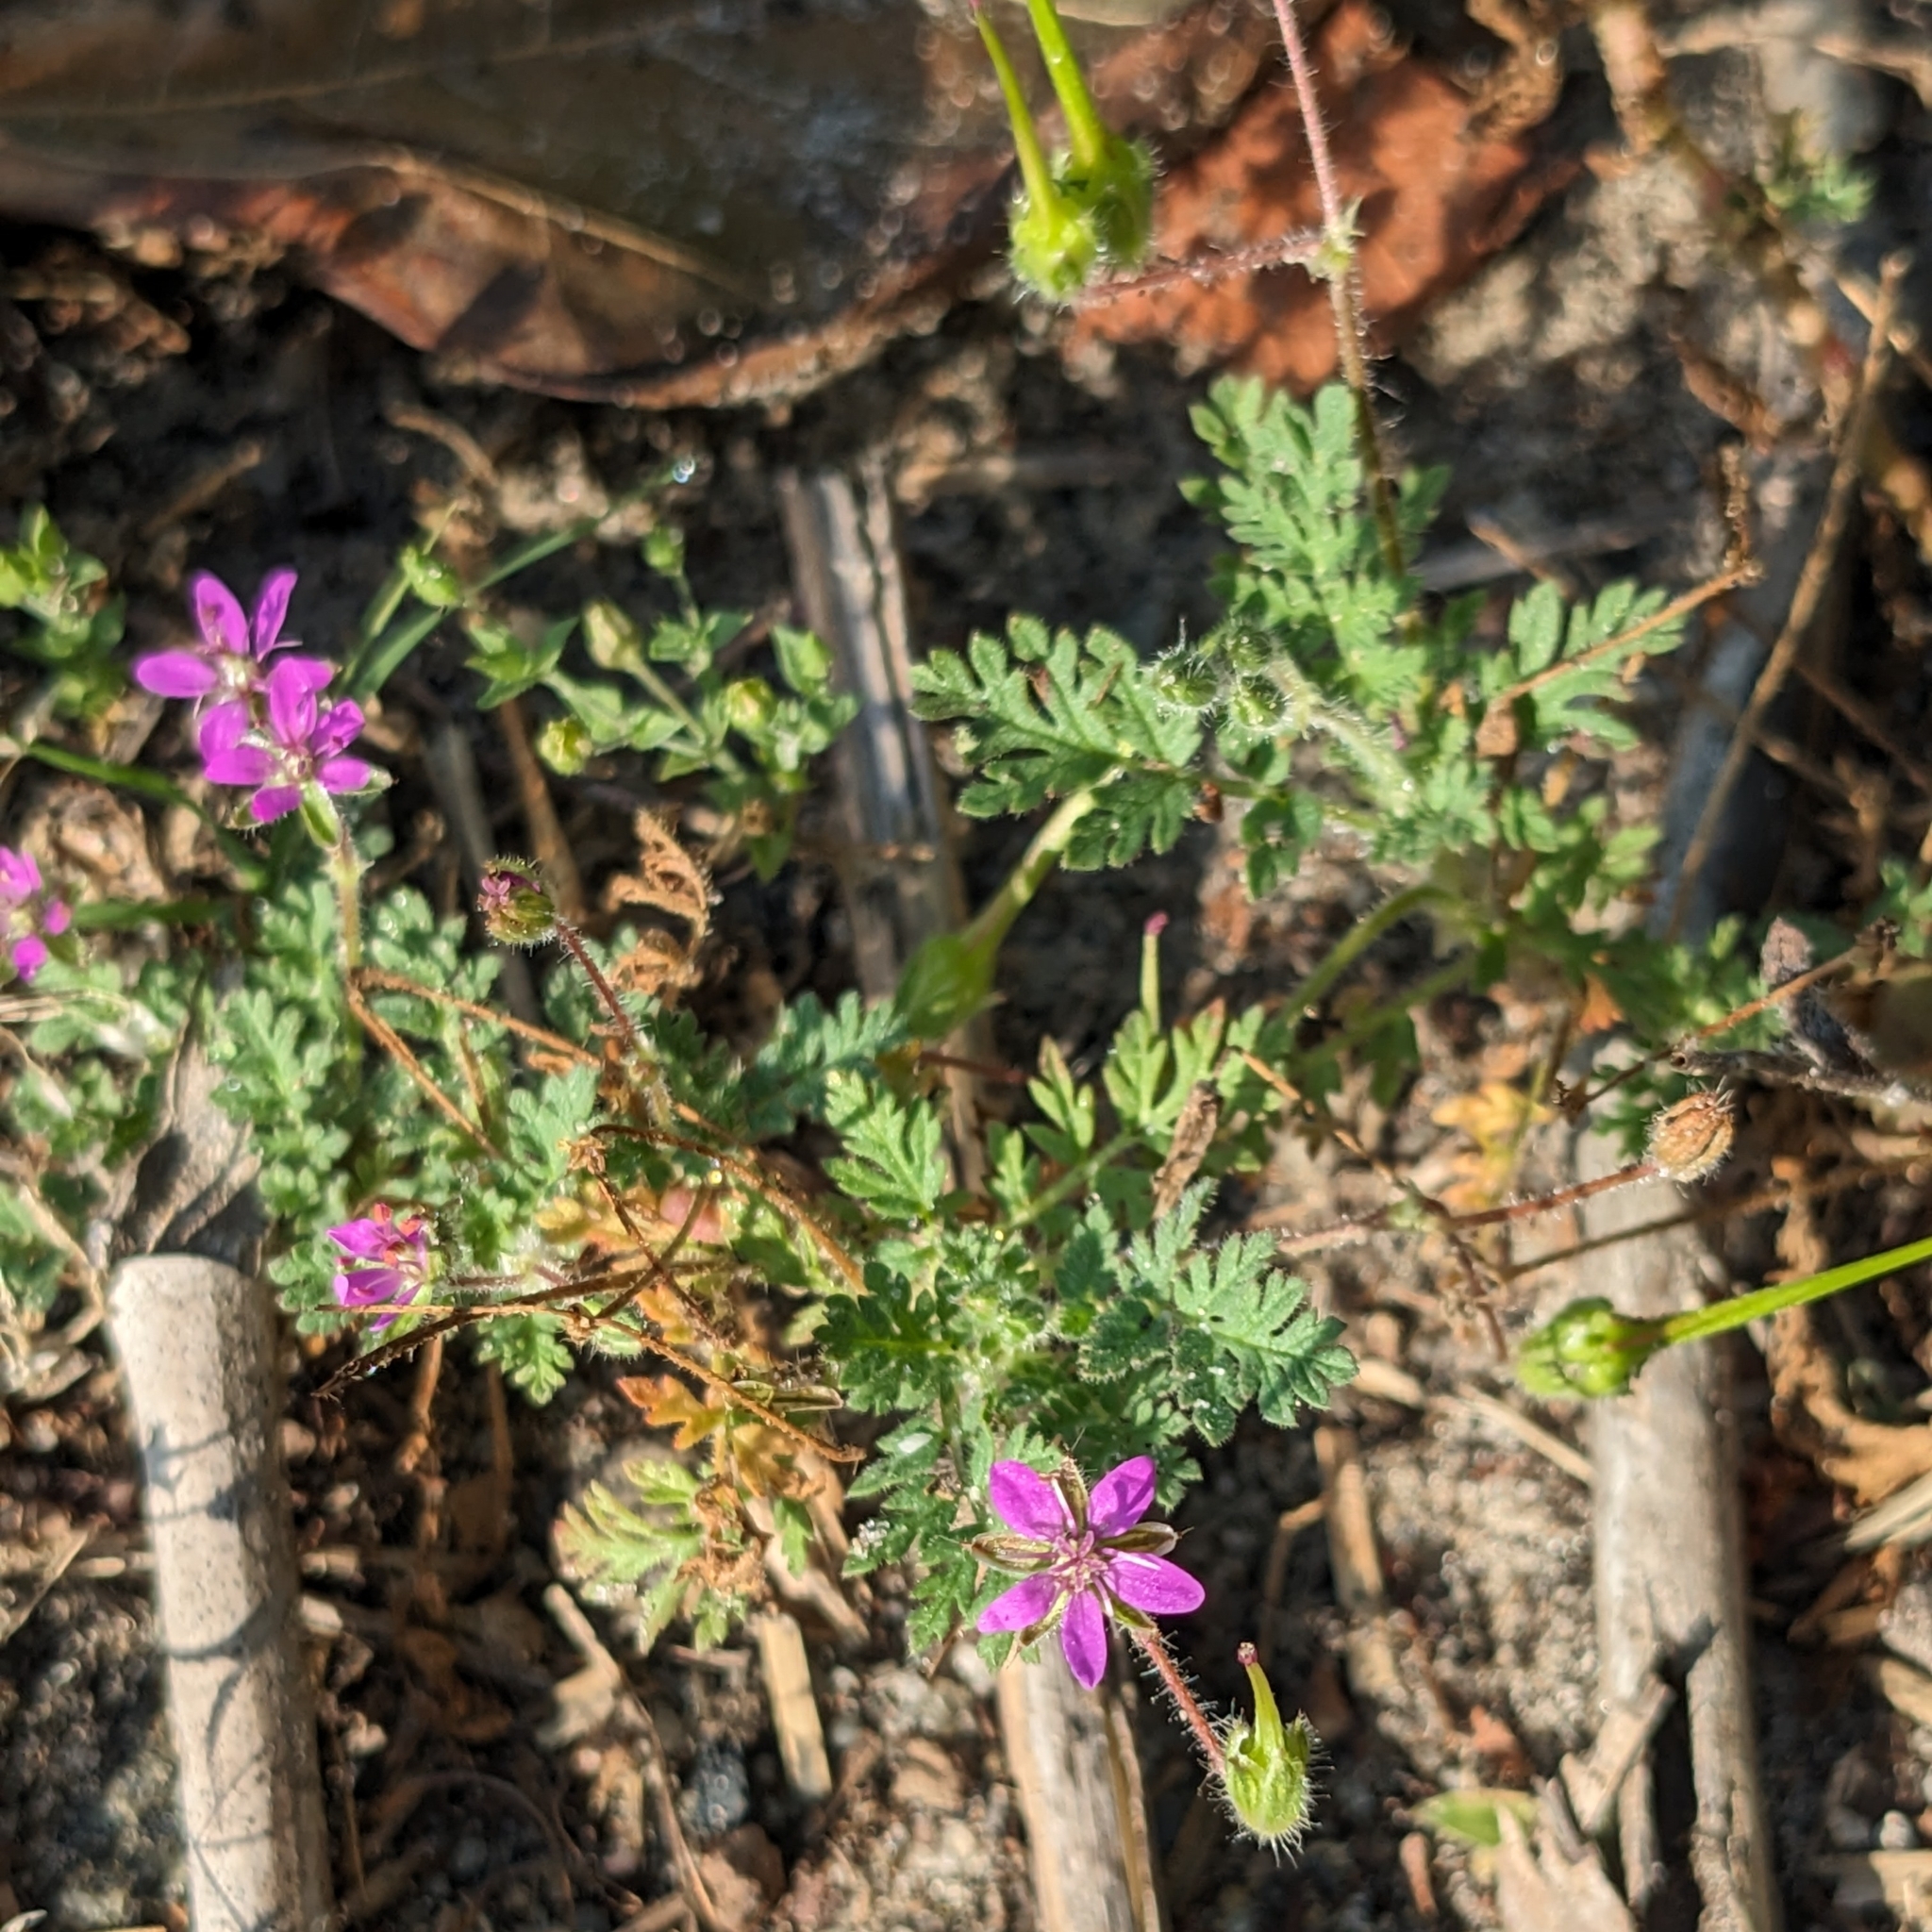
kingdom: Plantae
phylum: Tracheophyta
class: Magnoliopsida
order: Geraniales
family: Geraniaceae
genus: Erodium
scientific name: Erodium cicutarium
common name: Common stork's-bill
